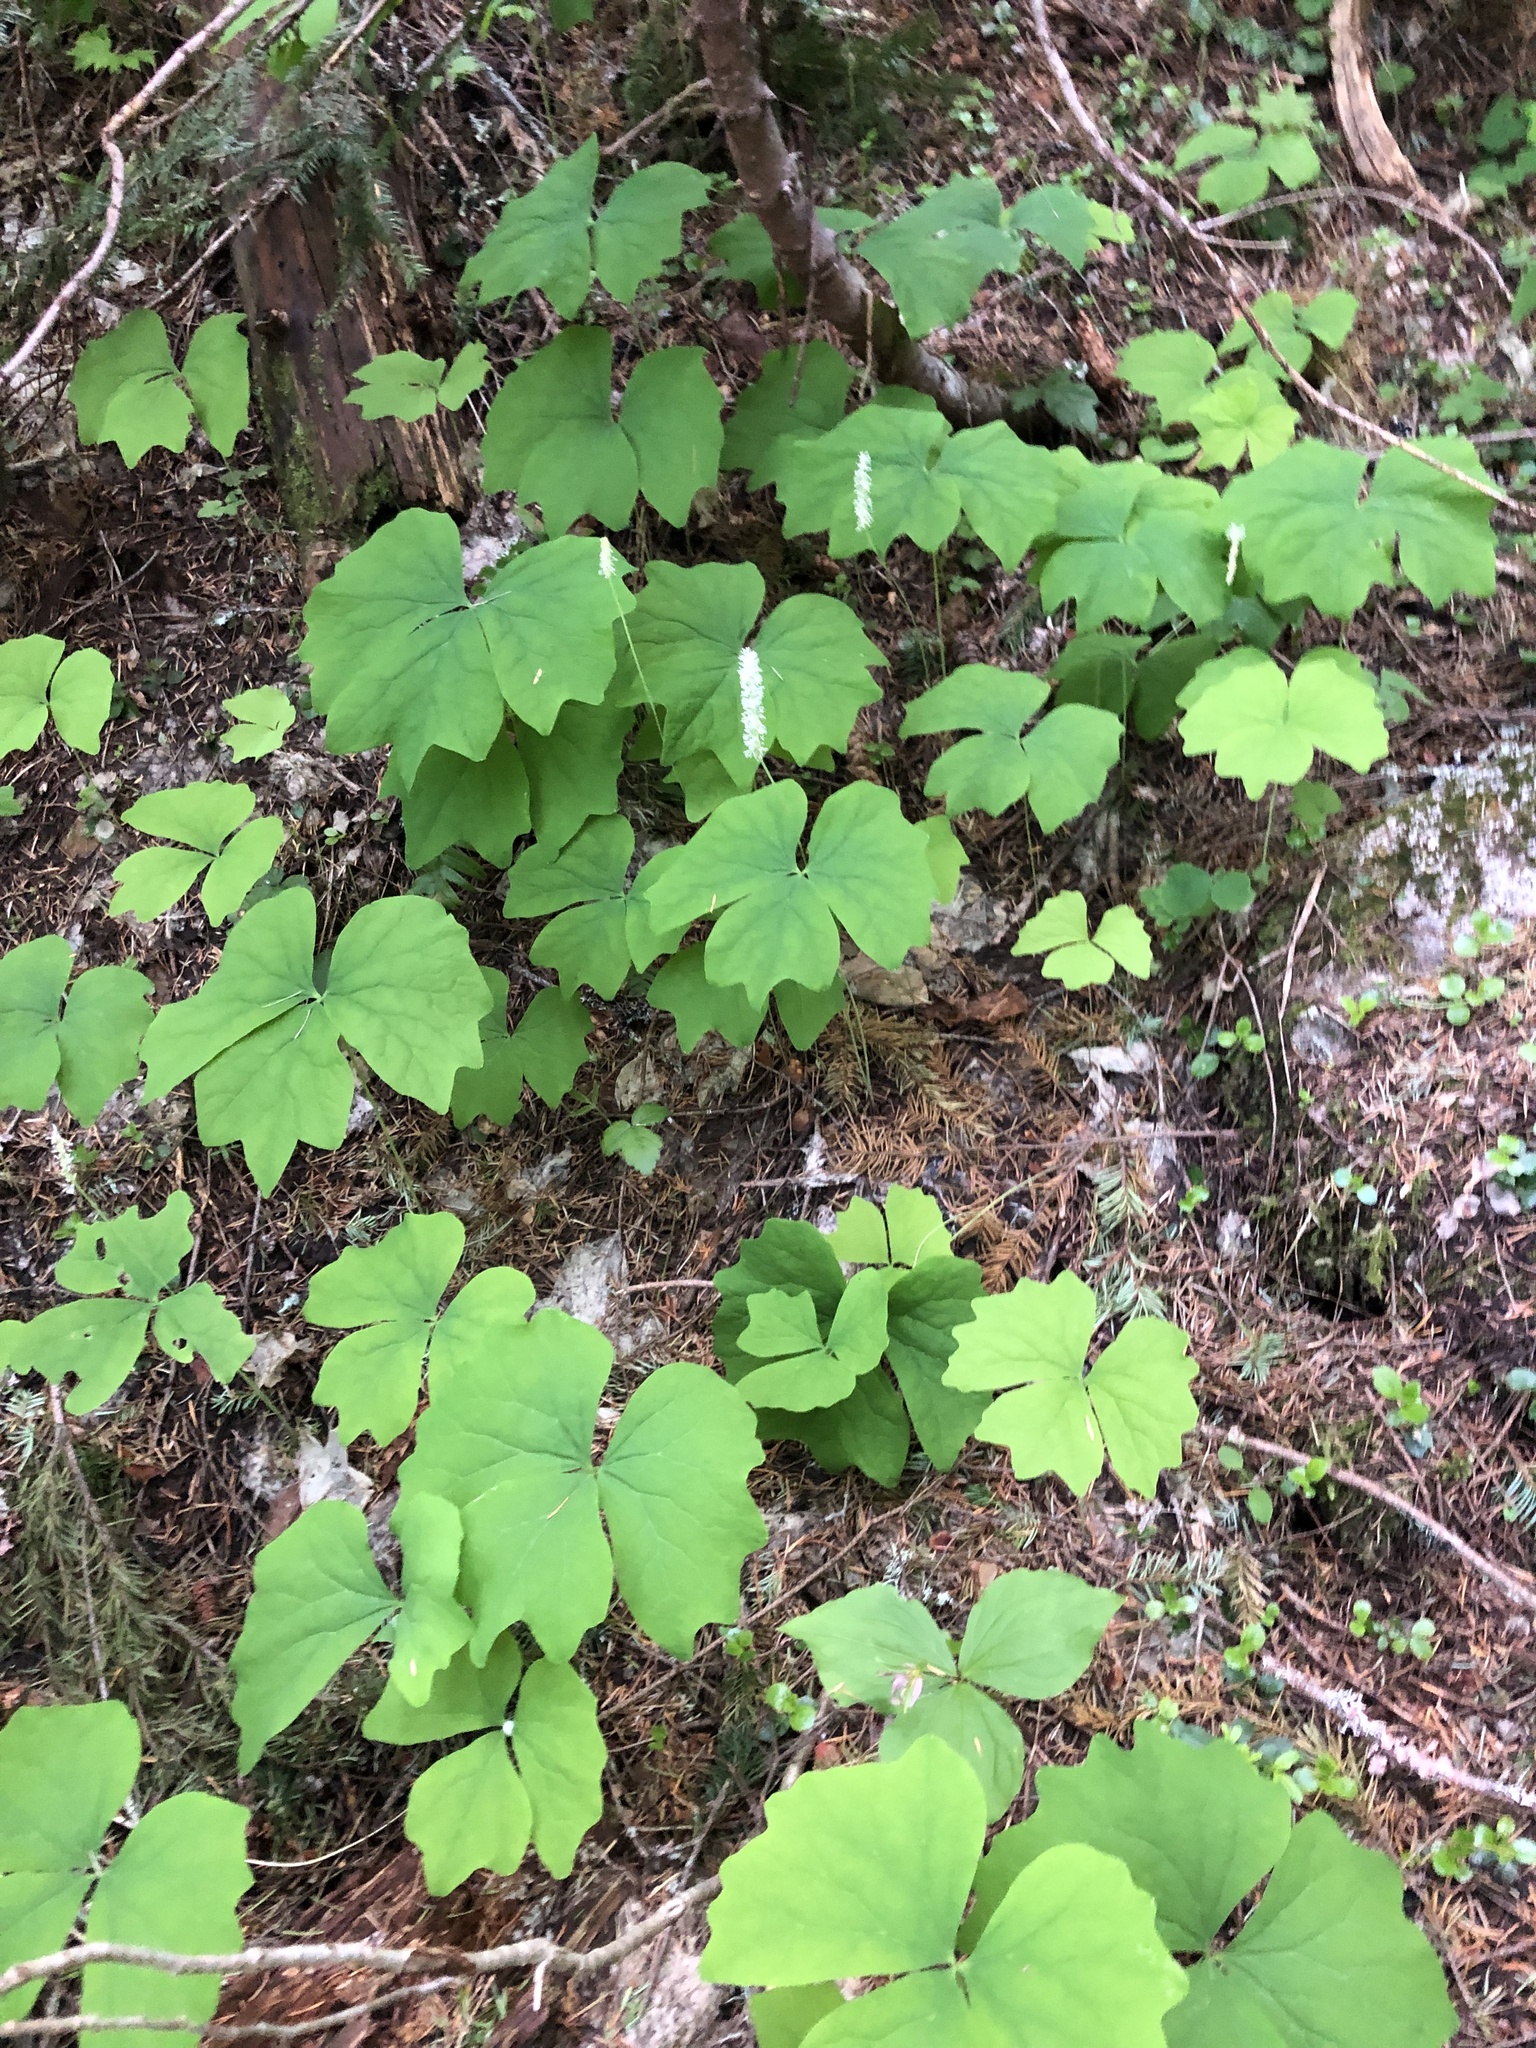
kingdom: Plantae
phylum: Tracheophyta
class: Magnoliopsida
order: Ranunculales
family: Berberidaceae
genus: Achlys
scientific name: Achlys triphylla
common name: Vanilla-leaf
